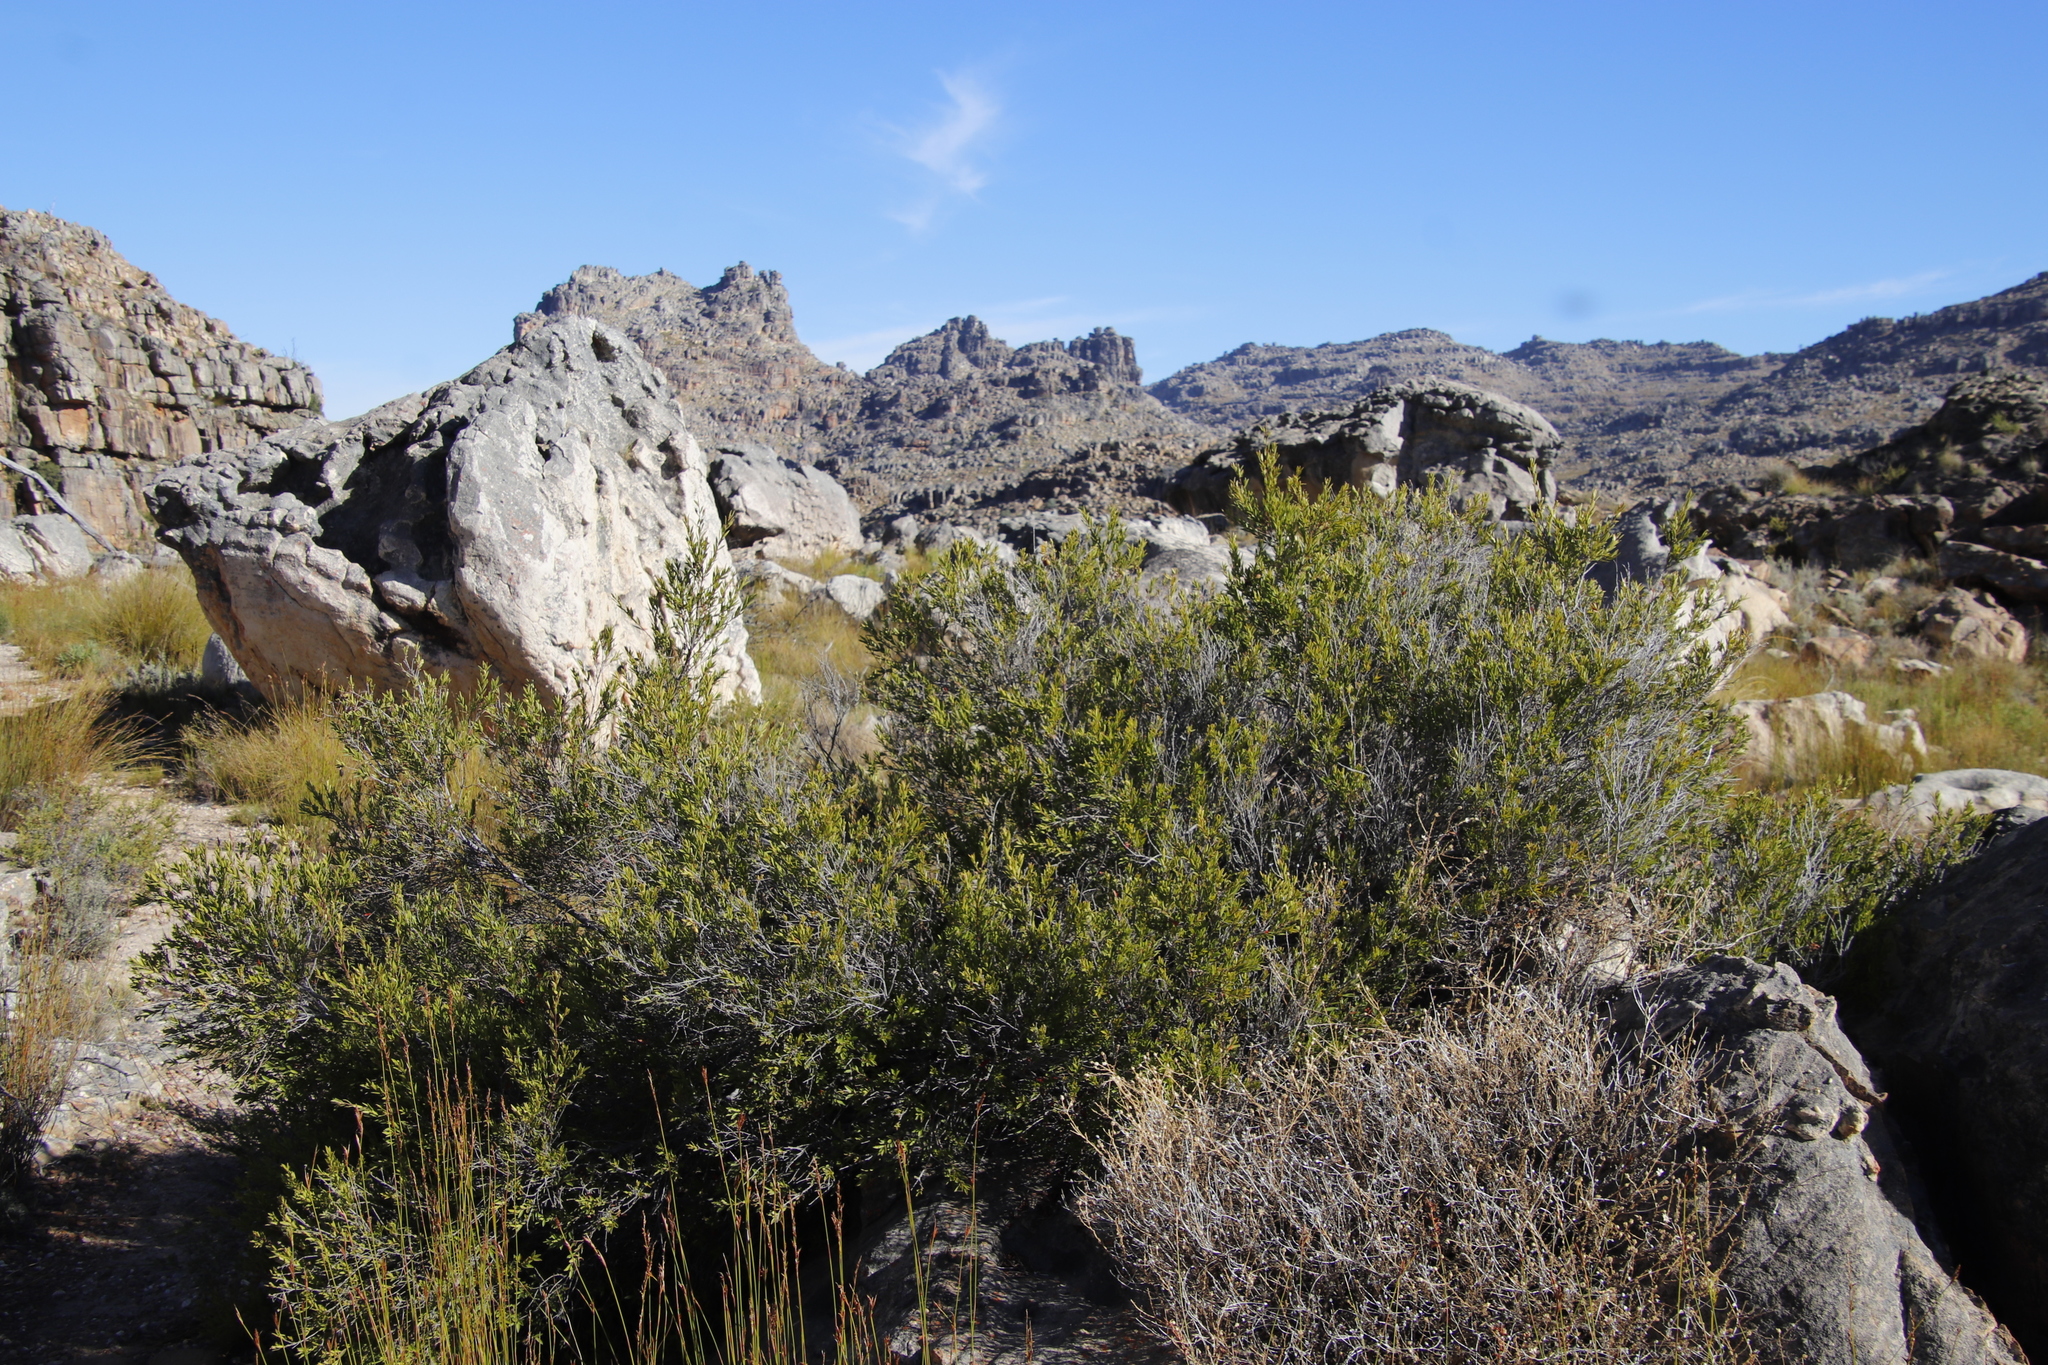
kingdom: Plantae
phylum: Tracheophyta
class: Magnoliopsida
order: Ericales
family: Ebenaceae
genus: Diospyros
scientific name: Diospyros glabra
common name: Fynbos star apple
